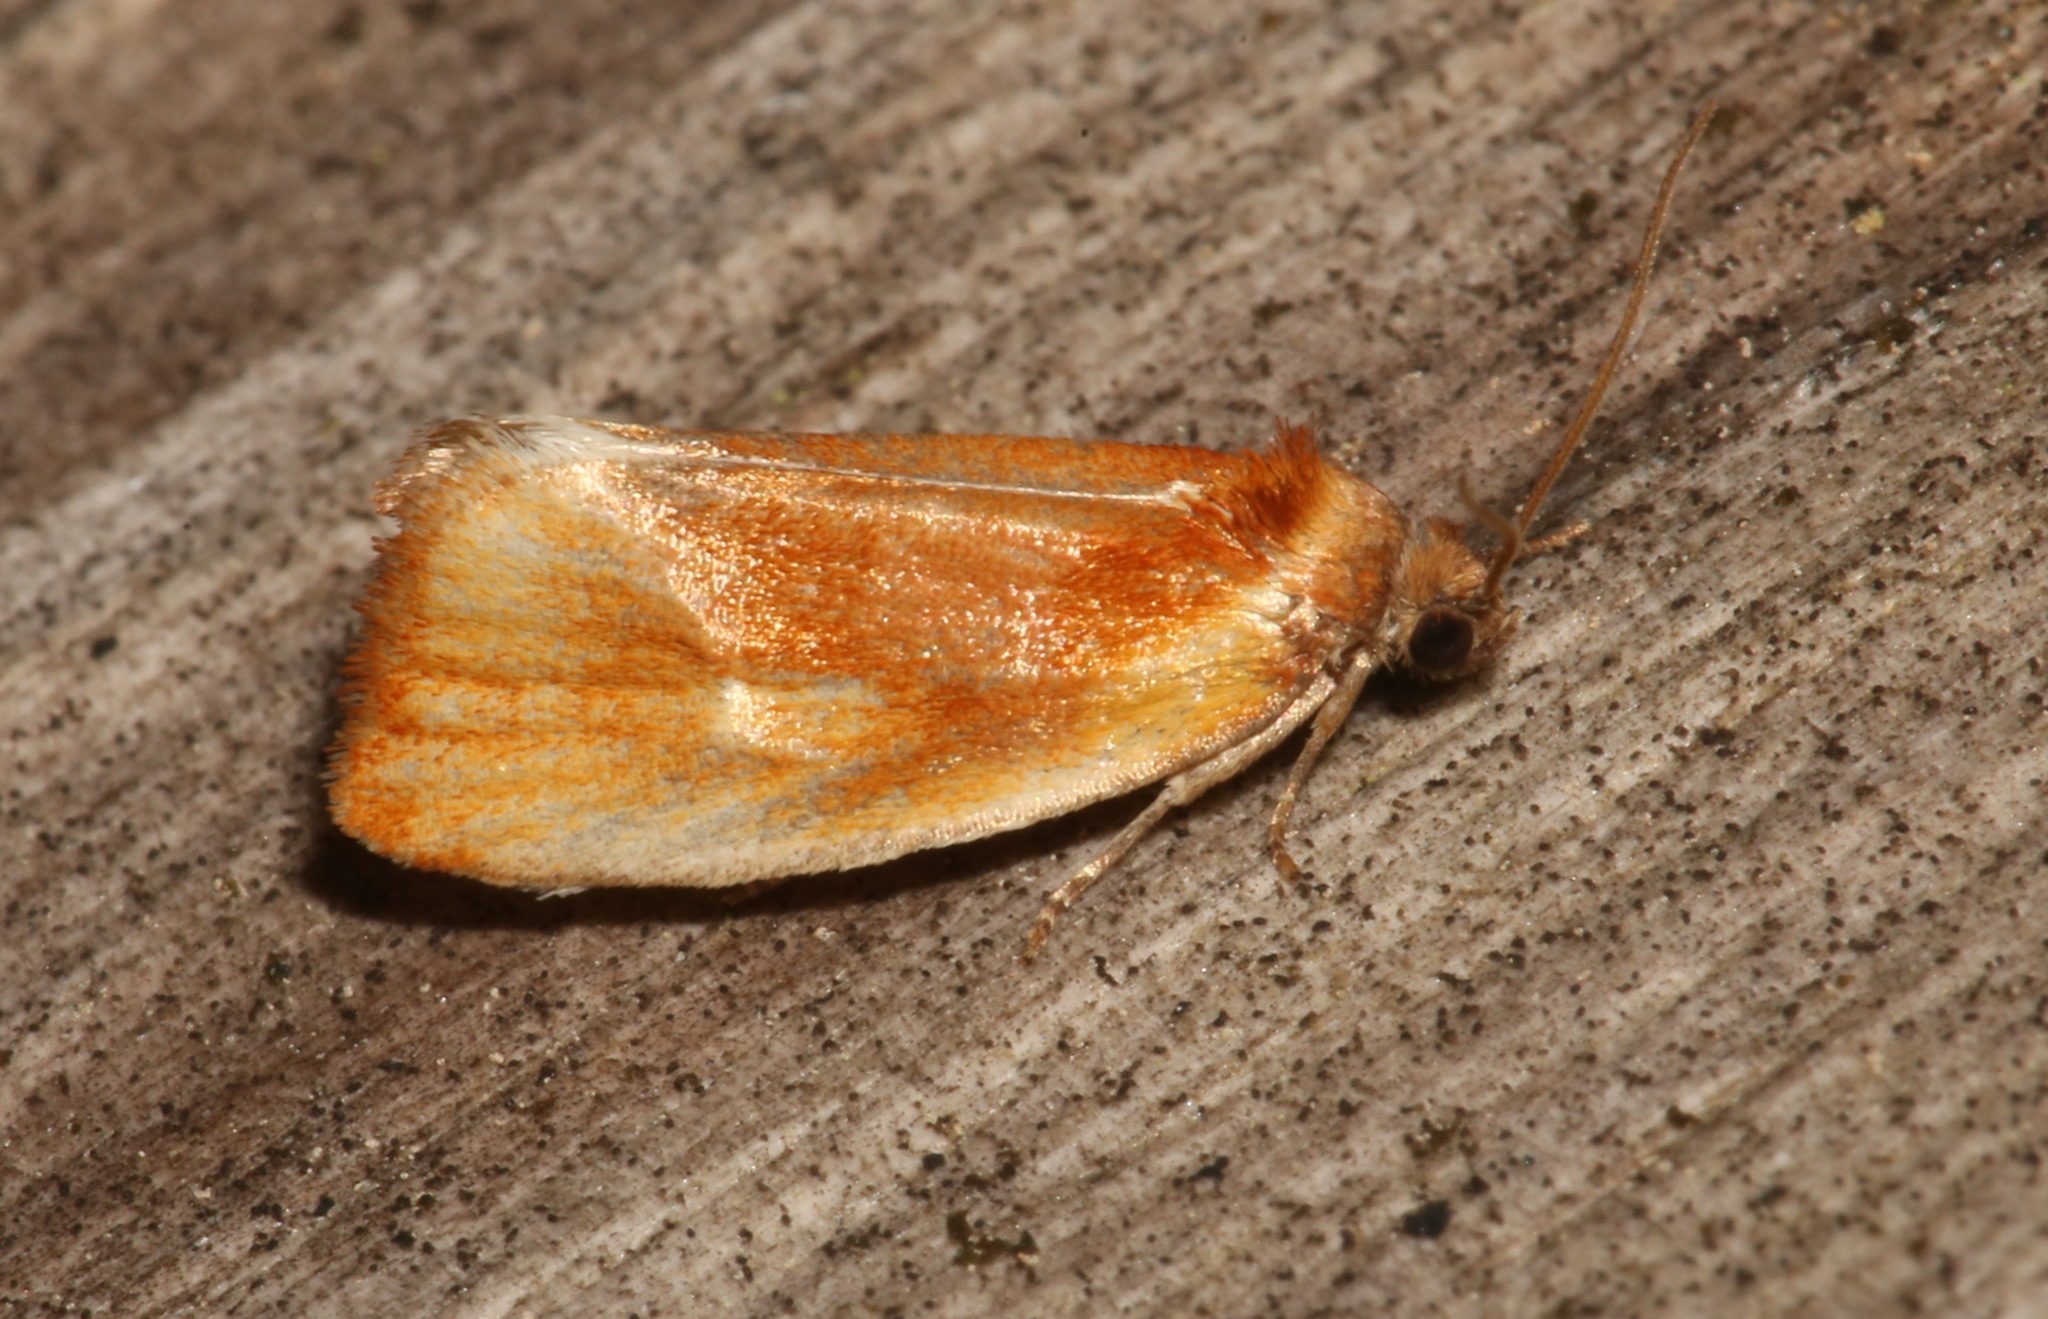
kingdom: Animalia
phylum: Arthropoda
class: Insecta
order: Lepidoptera
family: Tortricidae
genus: Eulia
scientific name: Eulia ministrana
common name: Brassy twist
